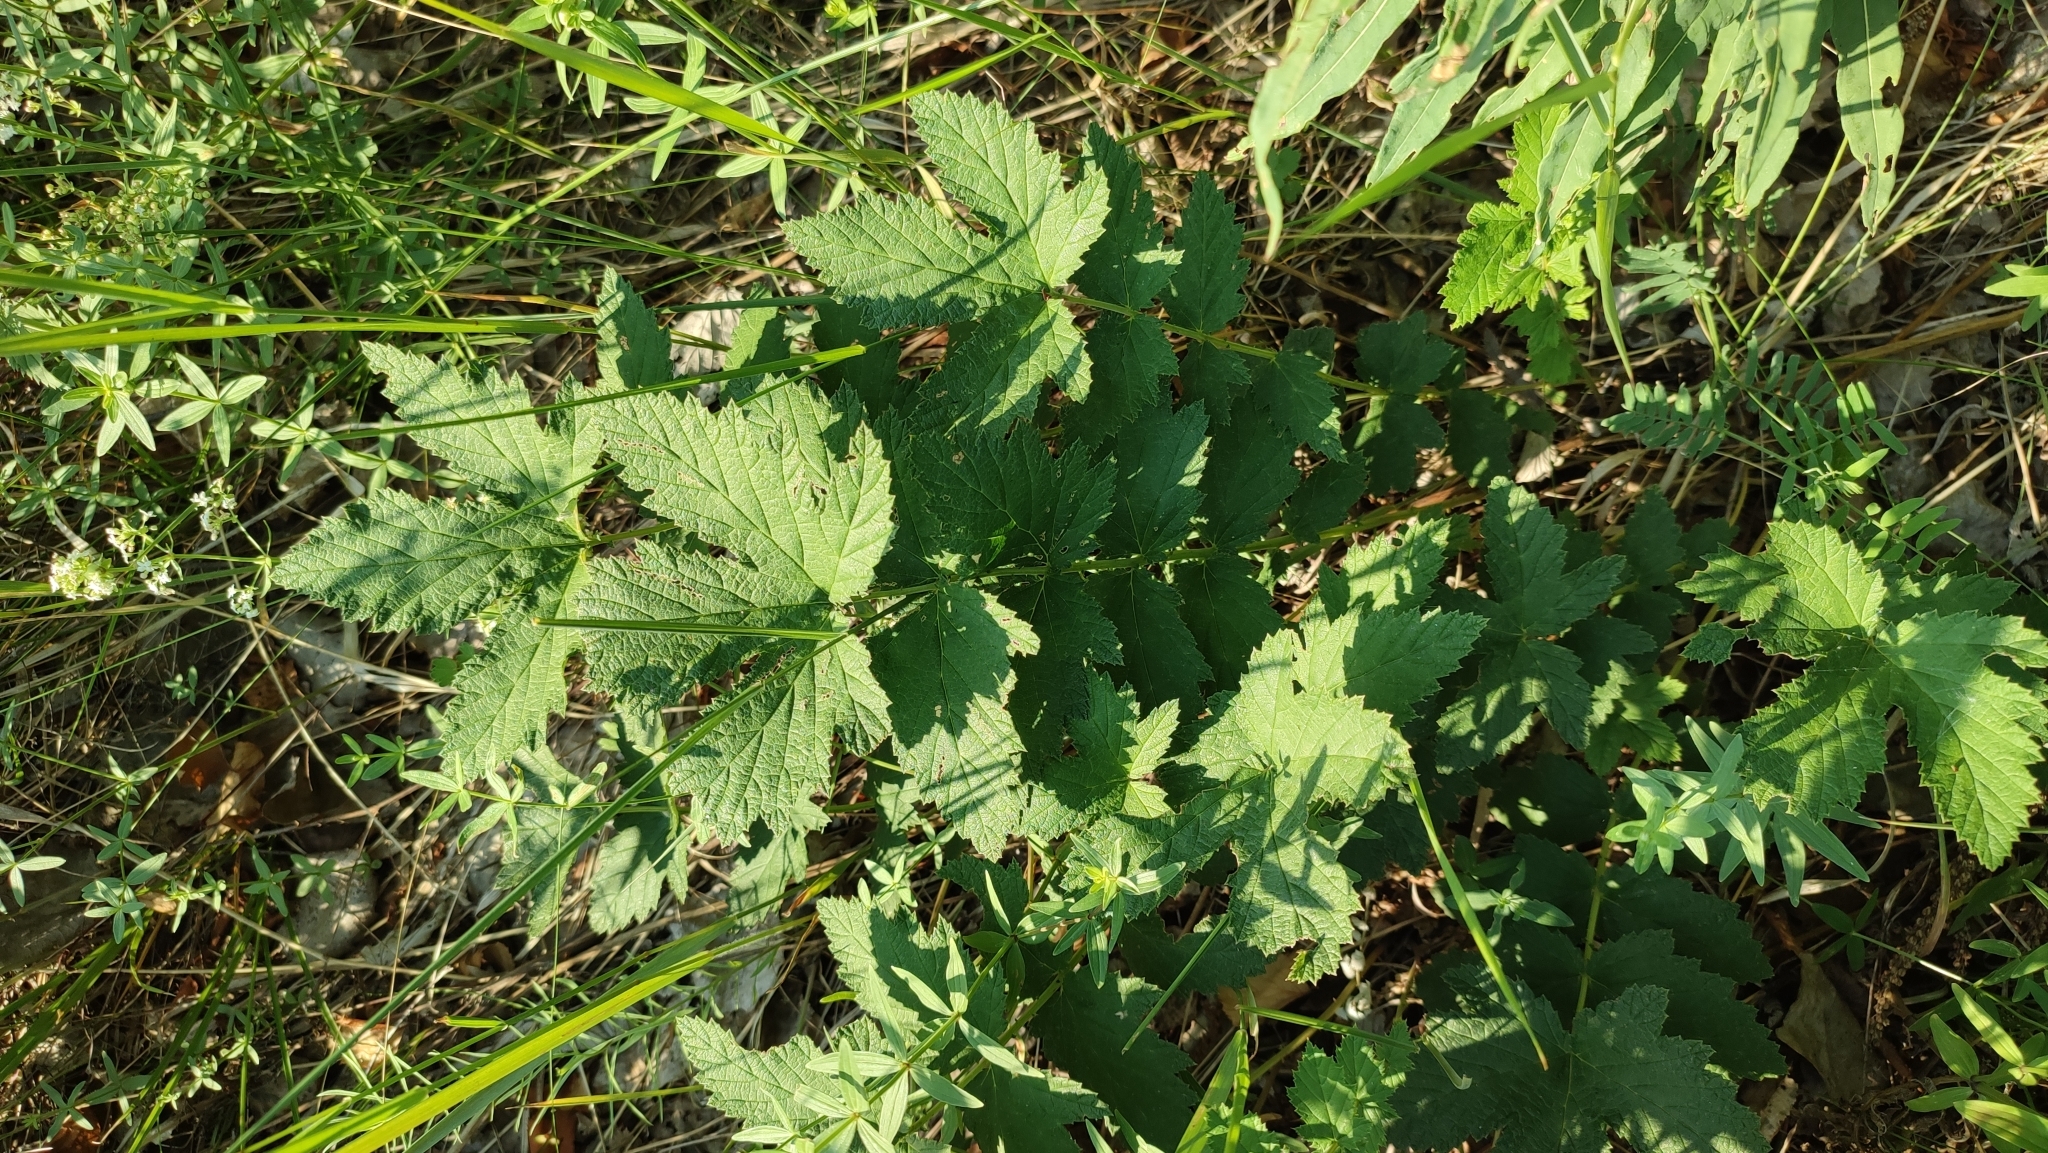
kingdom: Plantae
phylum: Tracheophyta
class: Magnoliopsida
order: Rosales
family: Rosaceae
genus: Filipendula
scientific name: Filipendula ulmaria
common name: Meadowsweet
